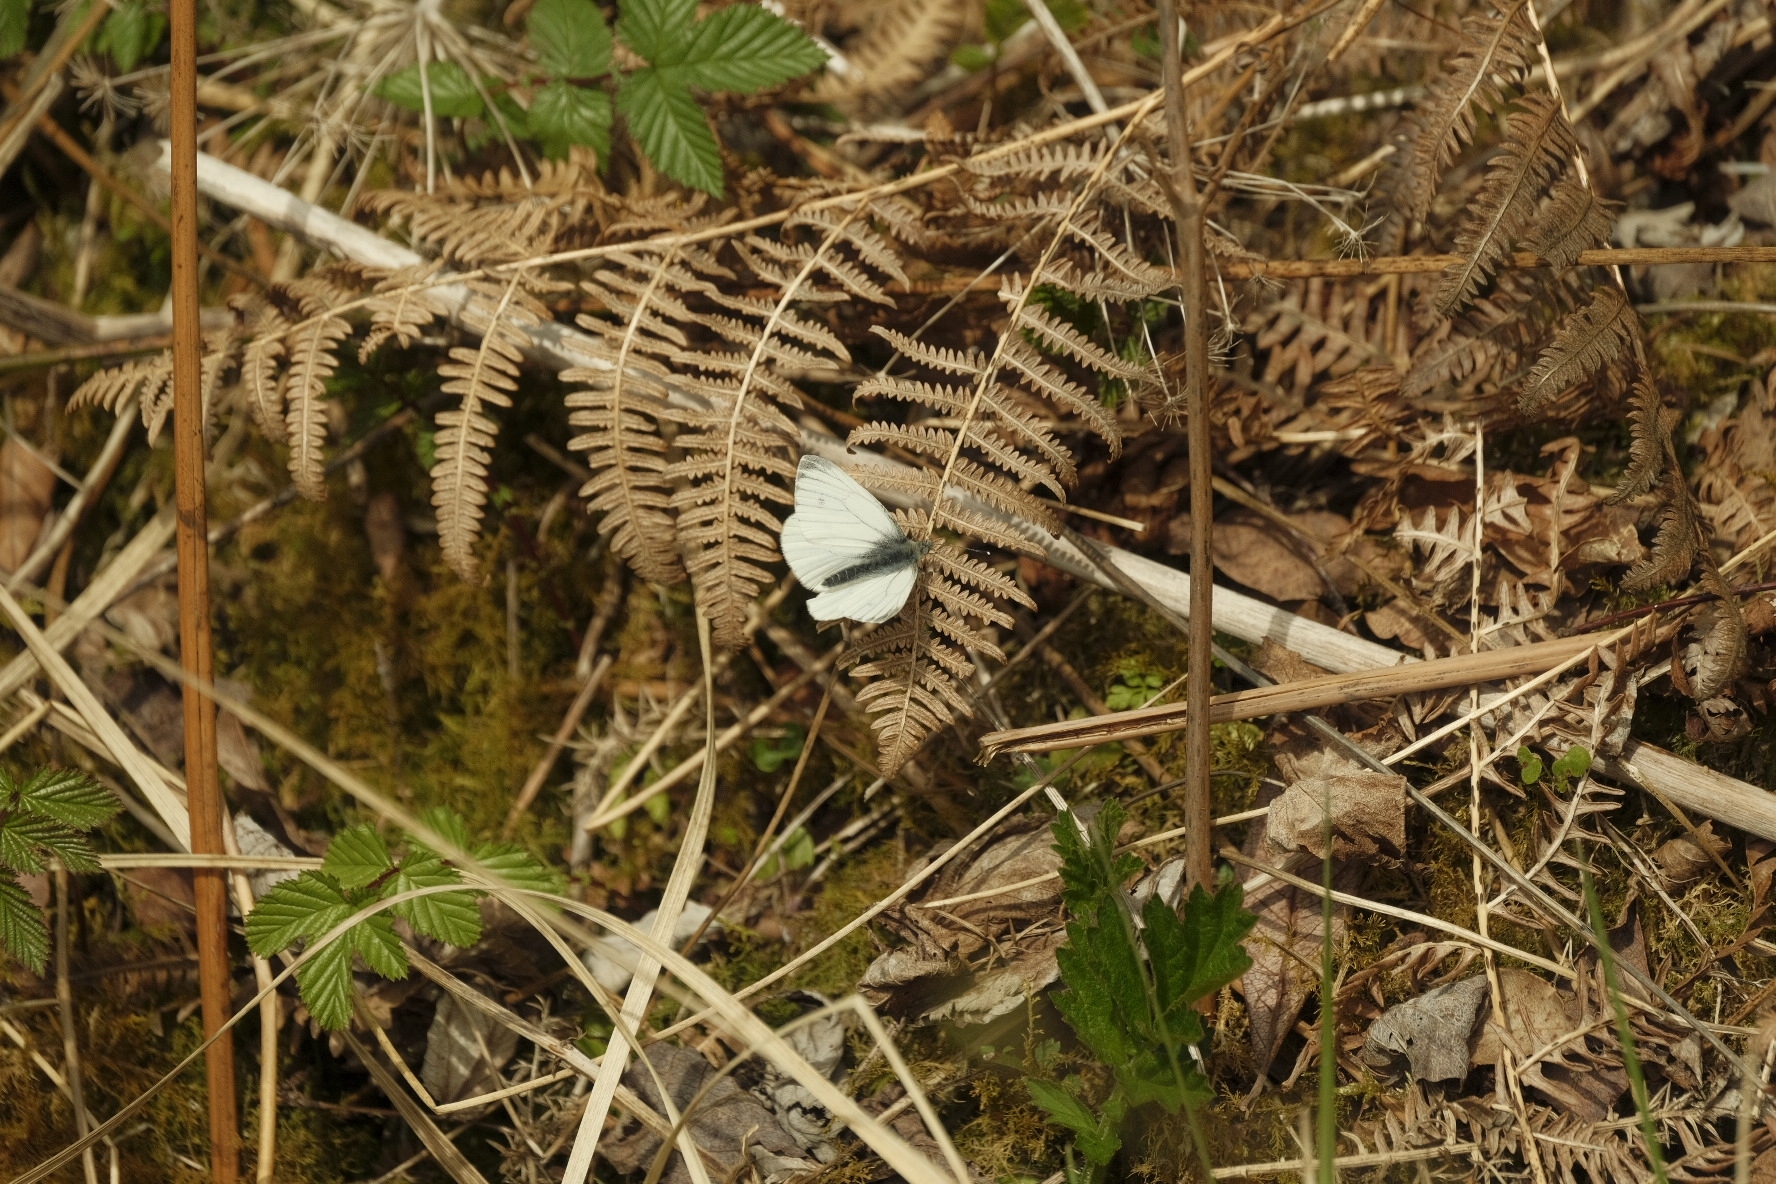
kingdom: Animalia
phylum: Arthropoda
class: Insecta
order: Lepidoptera
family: Pieridae
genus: Pieris
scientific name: Pieris napi
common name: Green-veined white
